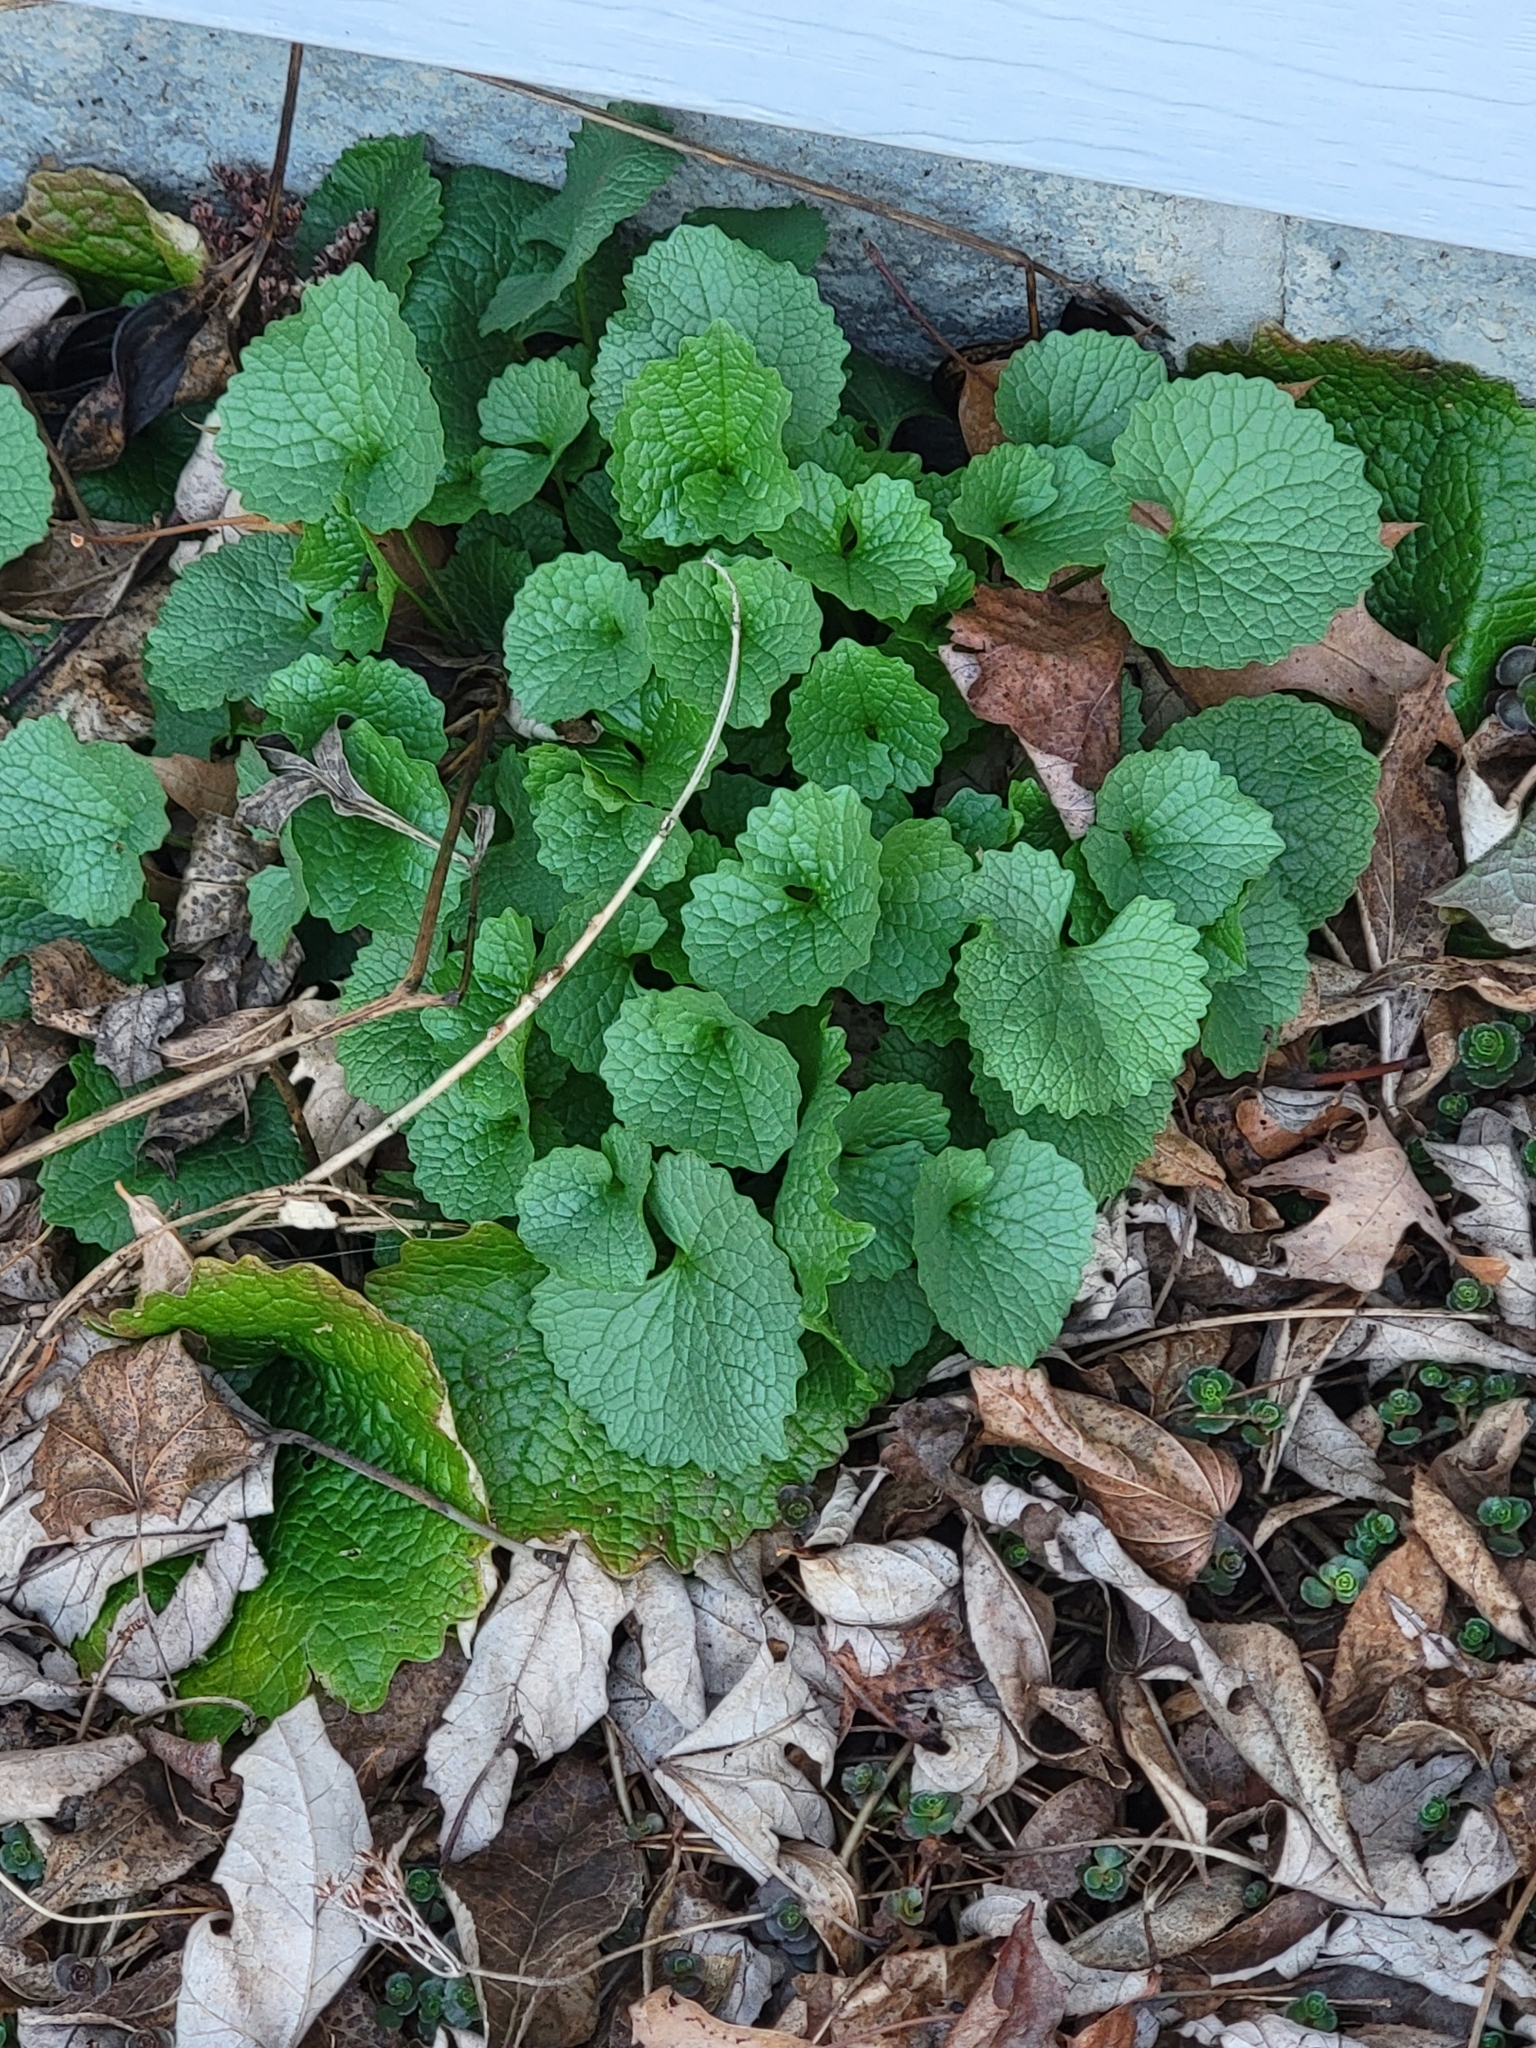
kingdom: Plantae
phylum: Tracheophyta
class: Magnoliopsida
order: Brassicales
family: Brassicaceae
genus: Alliaria
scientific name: Alliaria petiolata
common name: Garlic mustard
